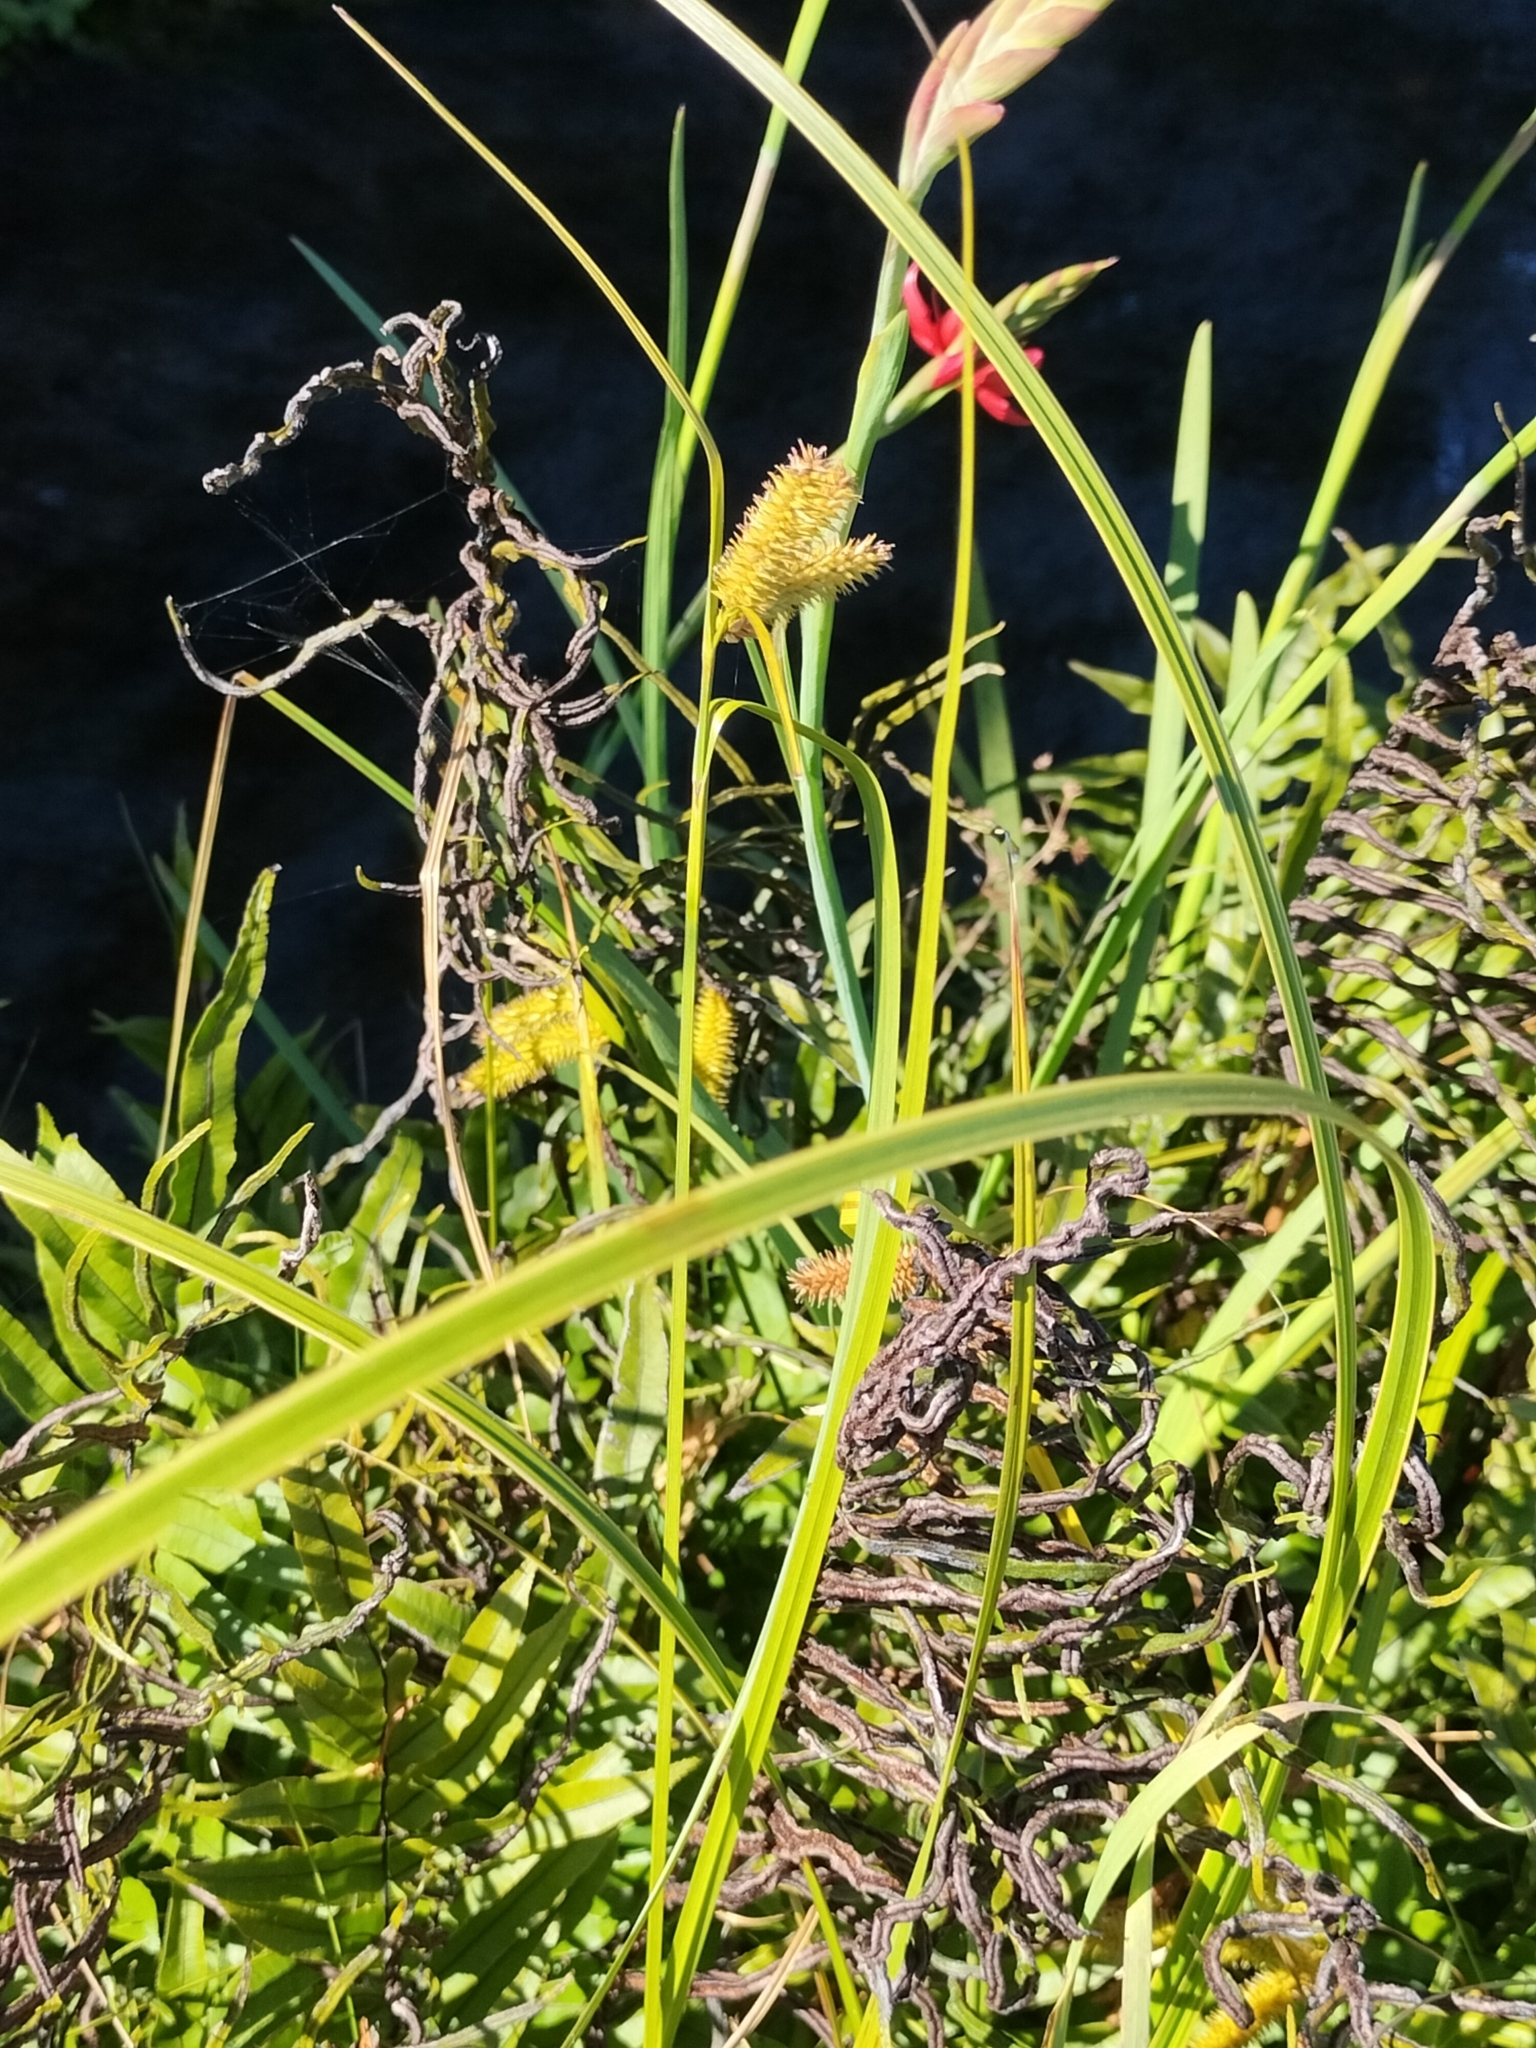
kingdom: Plantae
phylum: Tracheophyta
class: Liliopsida
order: Poales
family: Cyperaceae
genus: Carex
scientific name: Carex maorica
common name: Maori sedge
